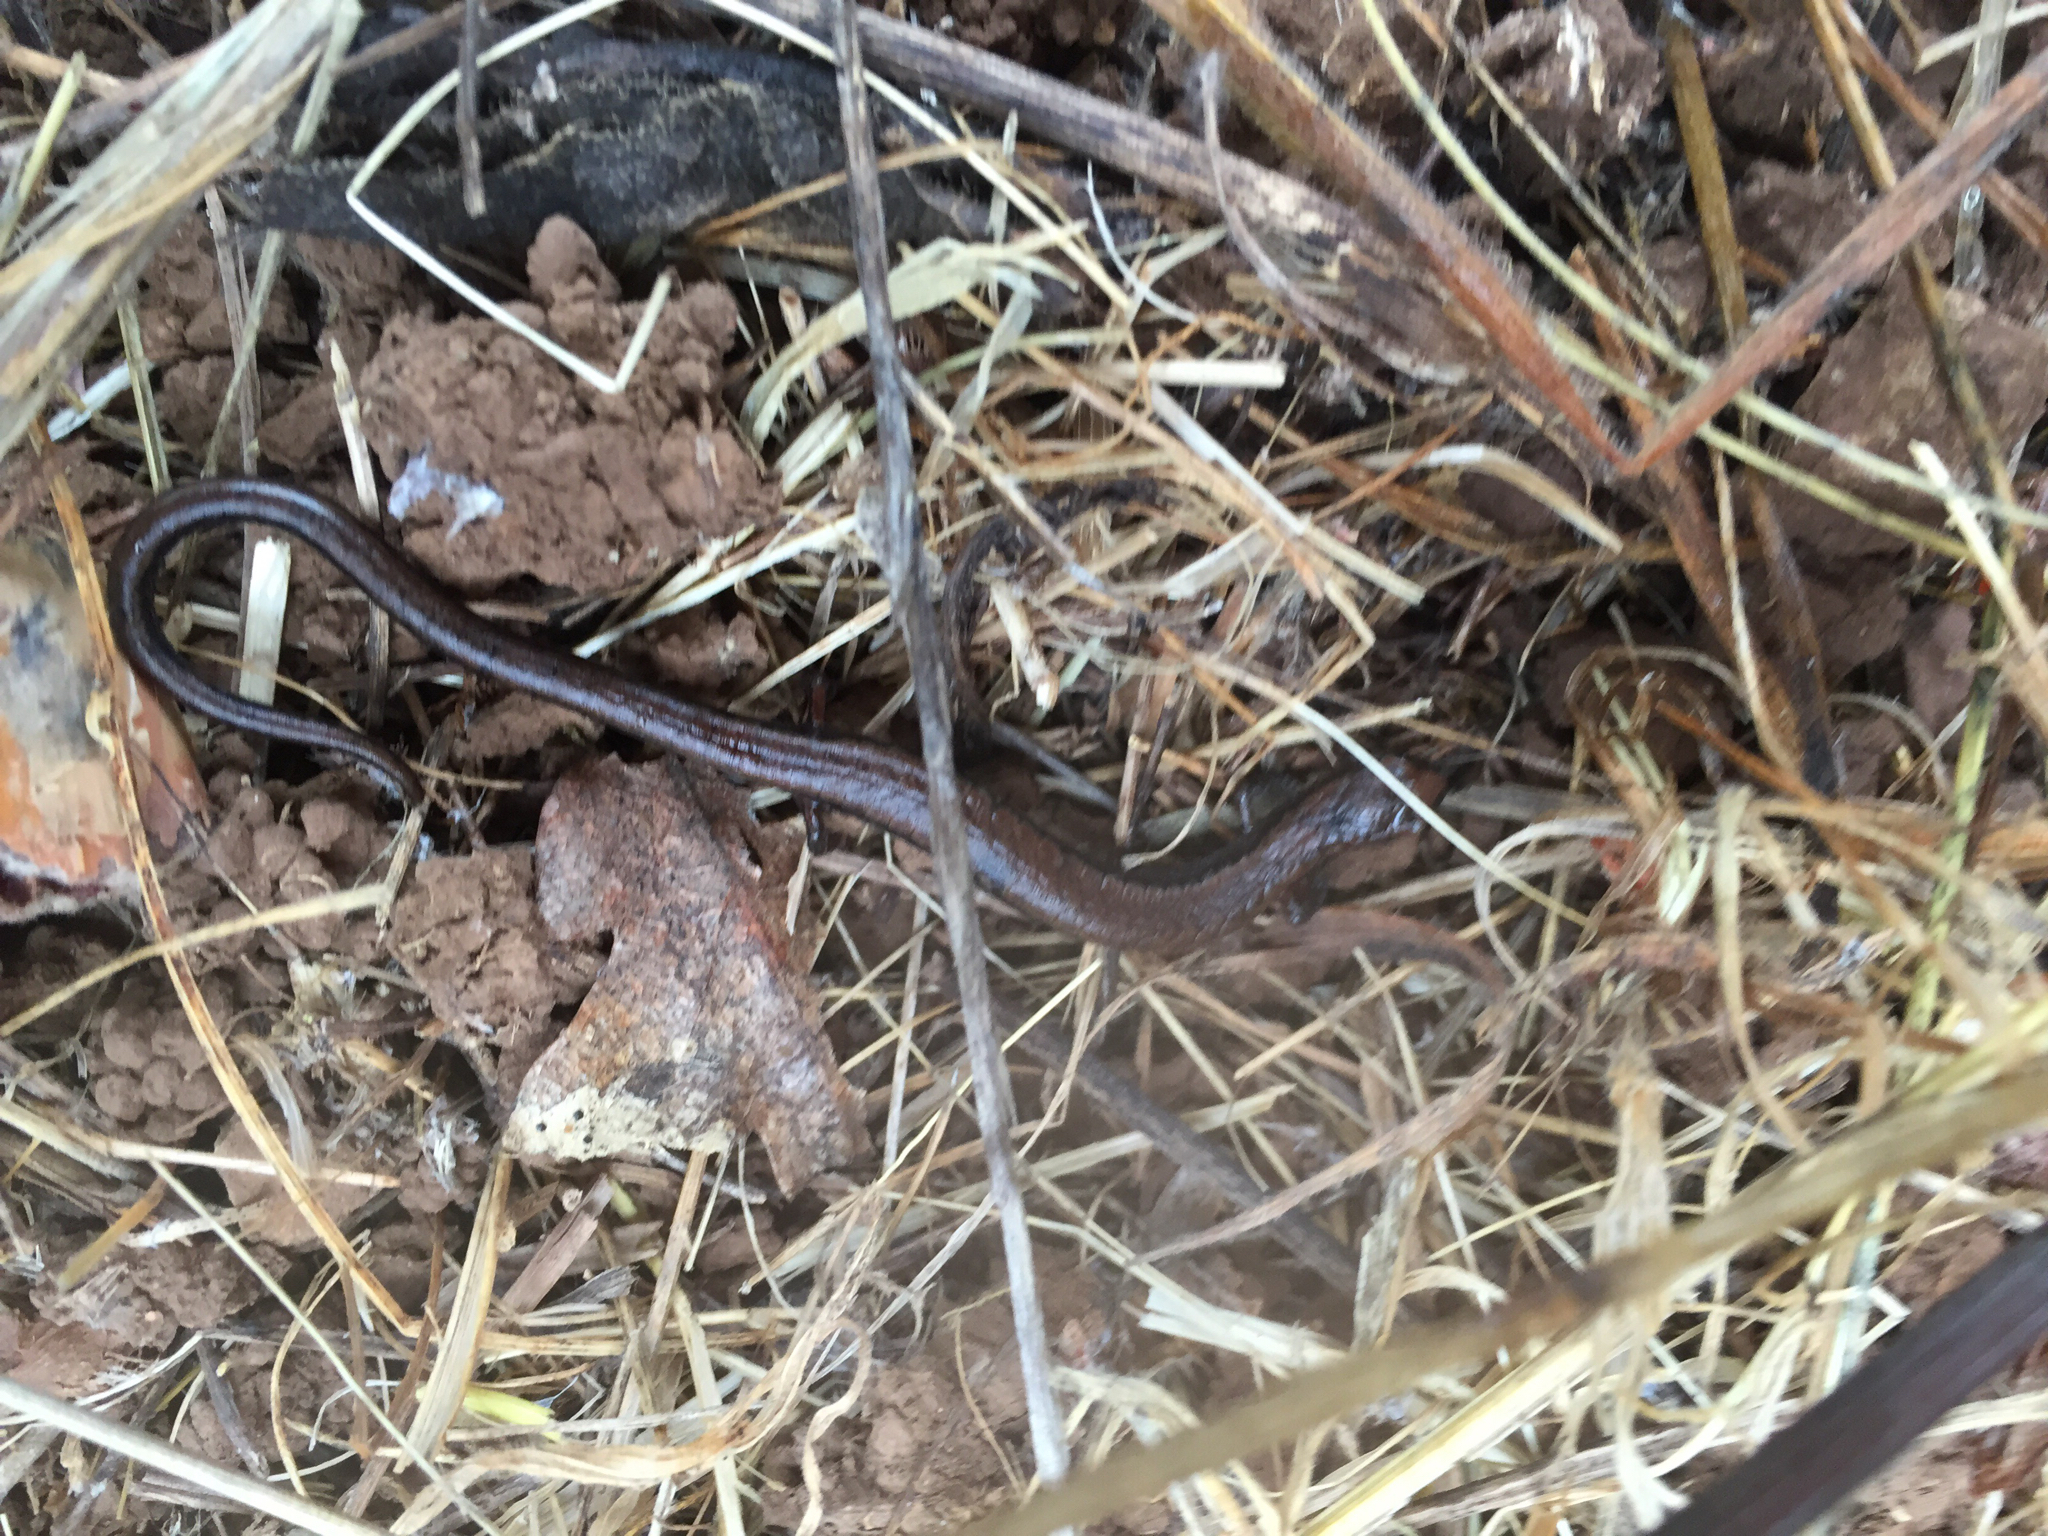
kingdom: Animalia
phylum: Chordata
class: Amphibia
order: Caudata
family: Plethodontidae
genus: Batrachoseps
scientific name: Batrachoseps attenuatus
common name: California slender salamander
